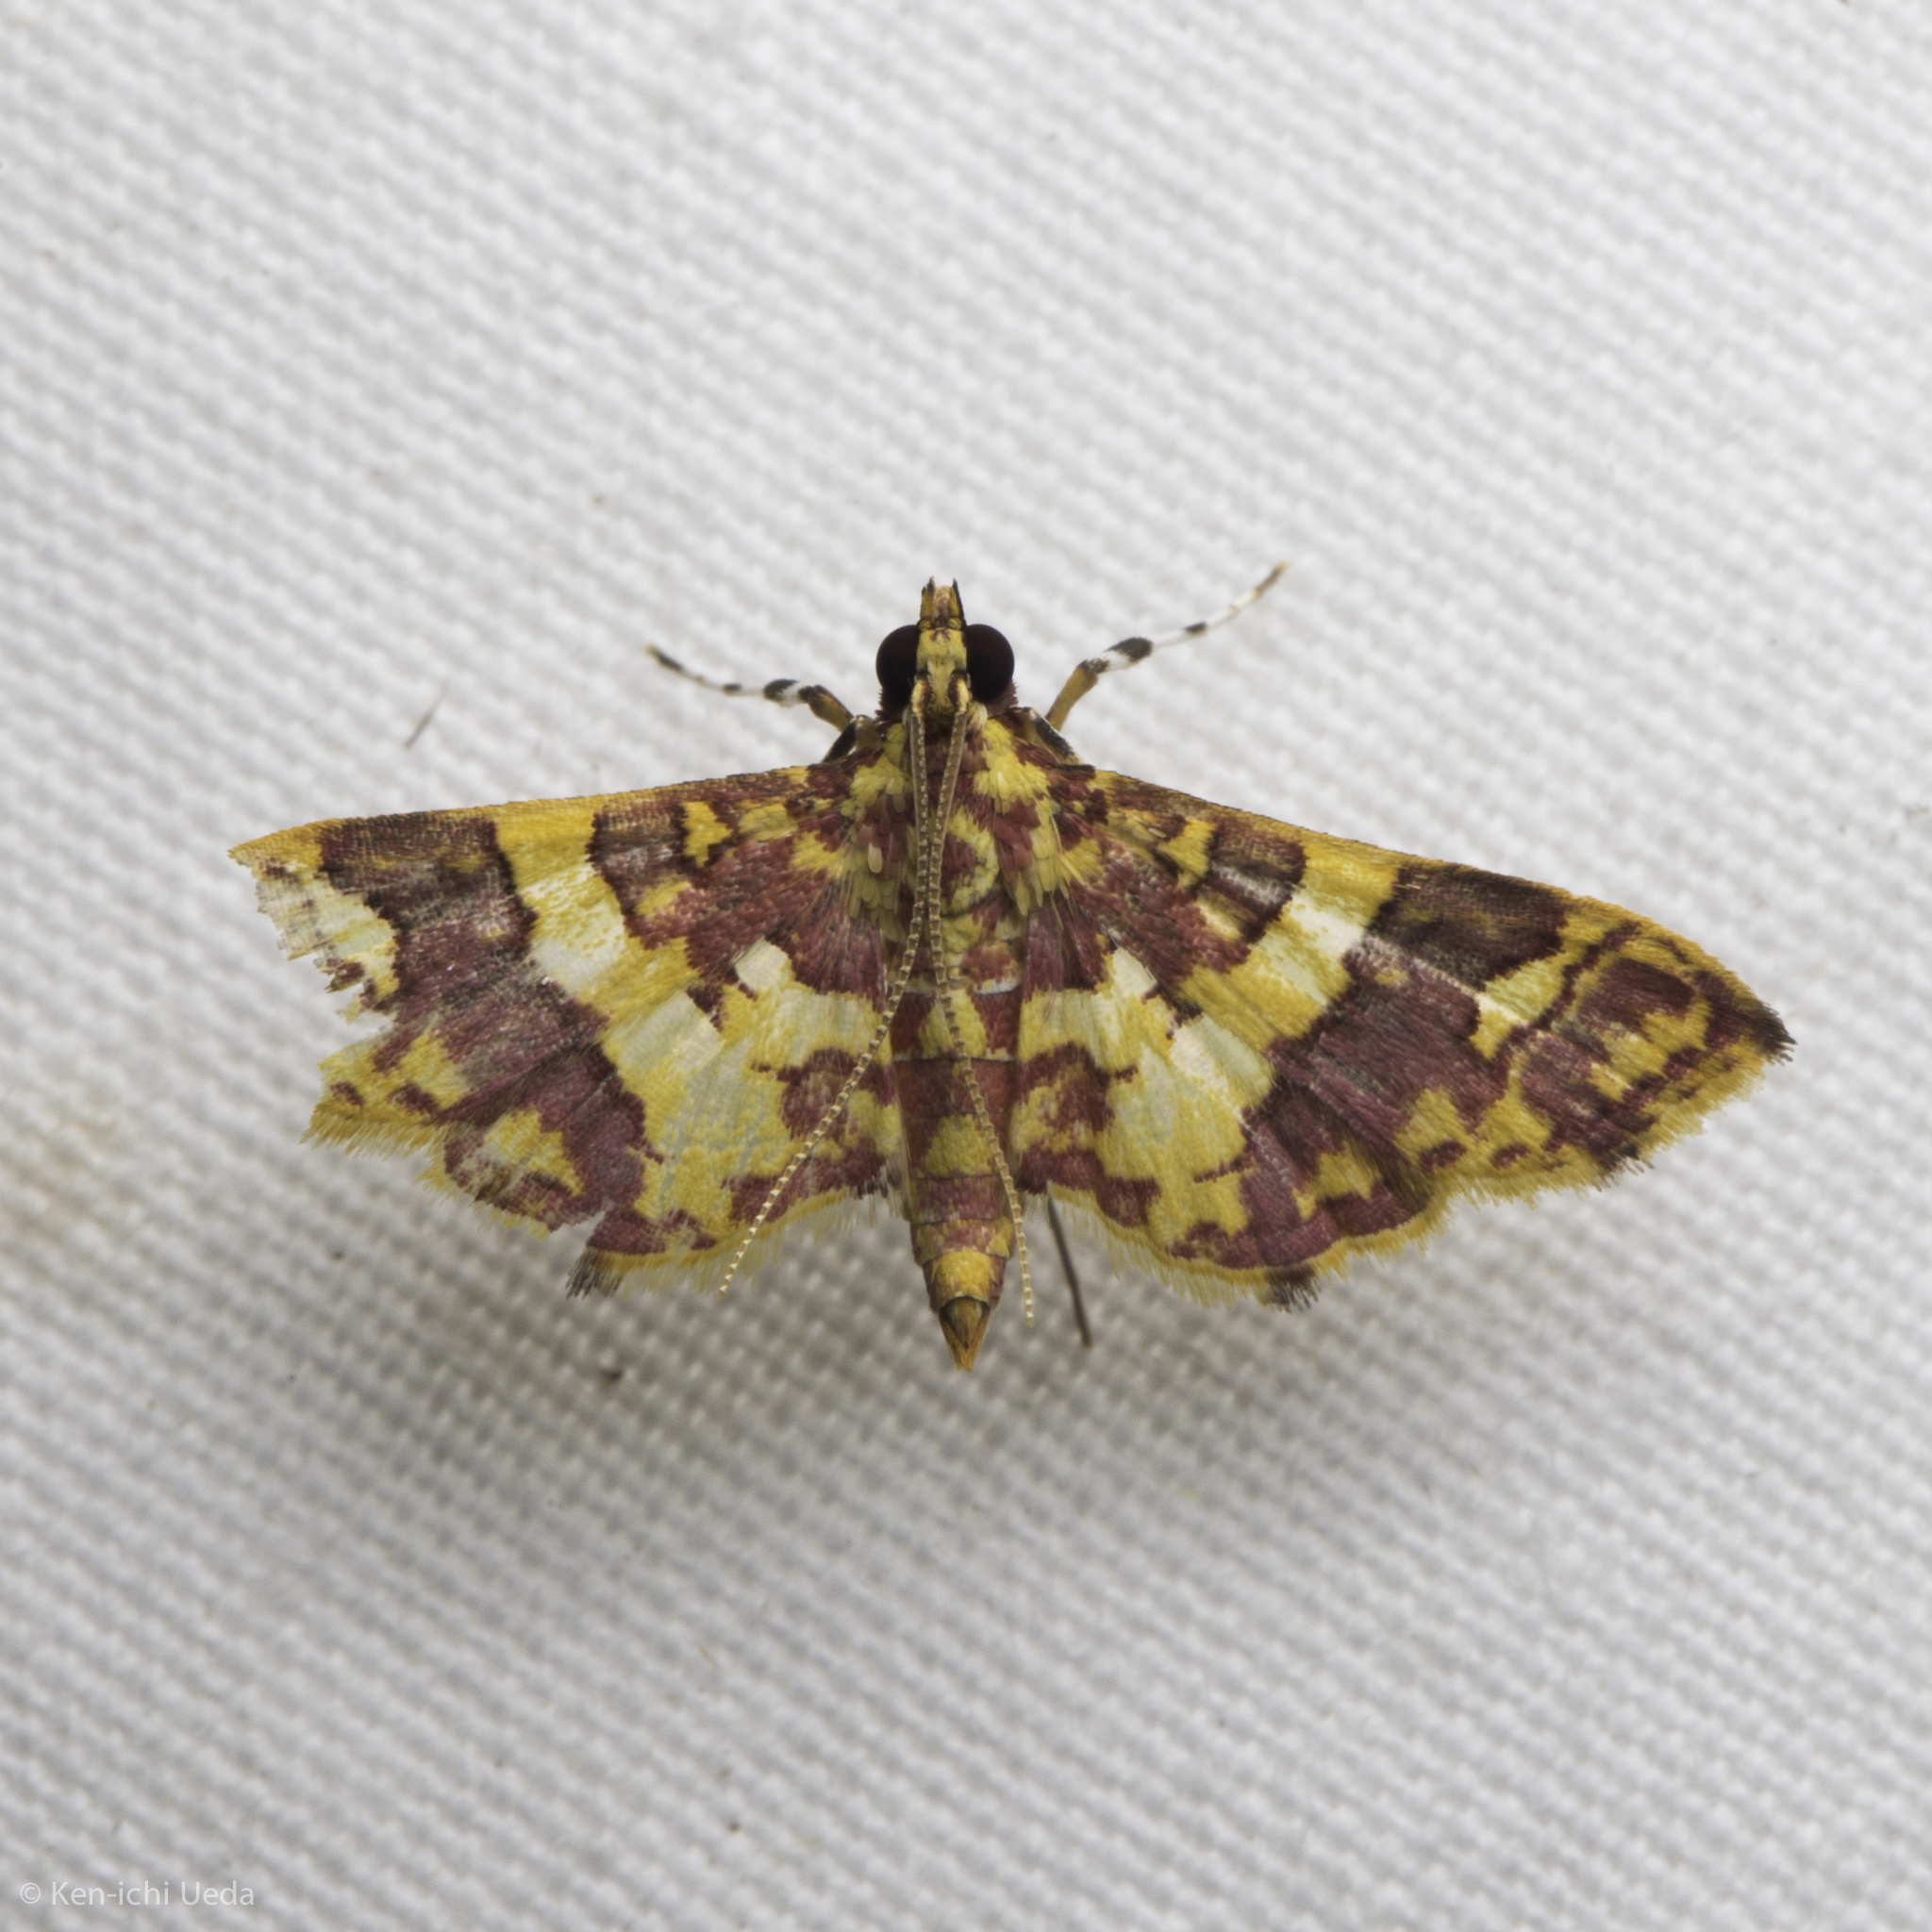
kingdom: Animalia
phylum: Arthropoda
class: Insecta
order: Lepidoptera
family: Crambidae
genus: Trithyris
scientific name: Trithyris Prenesta rubrocinctalis
